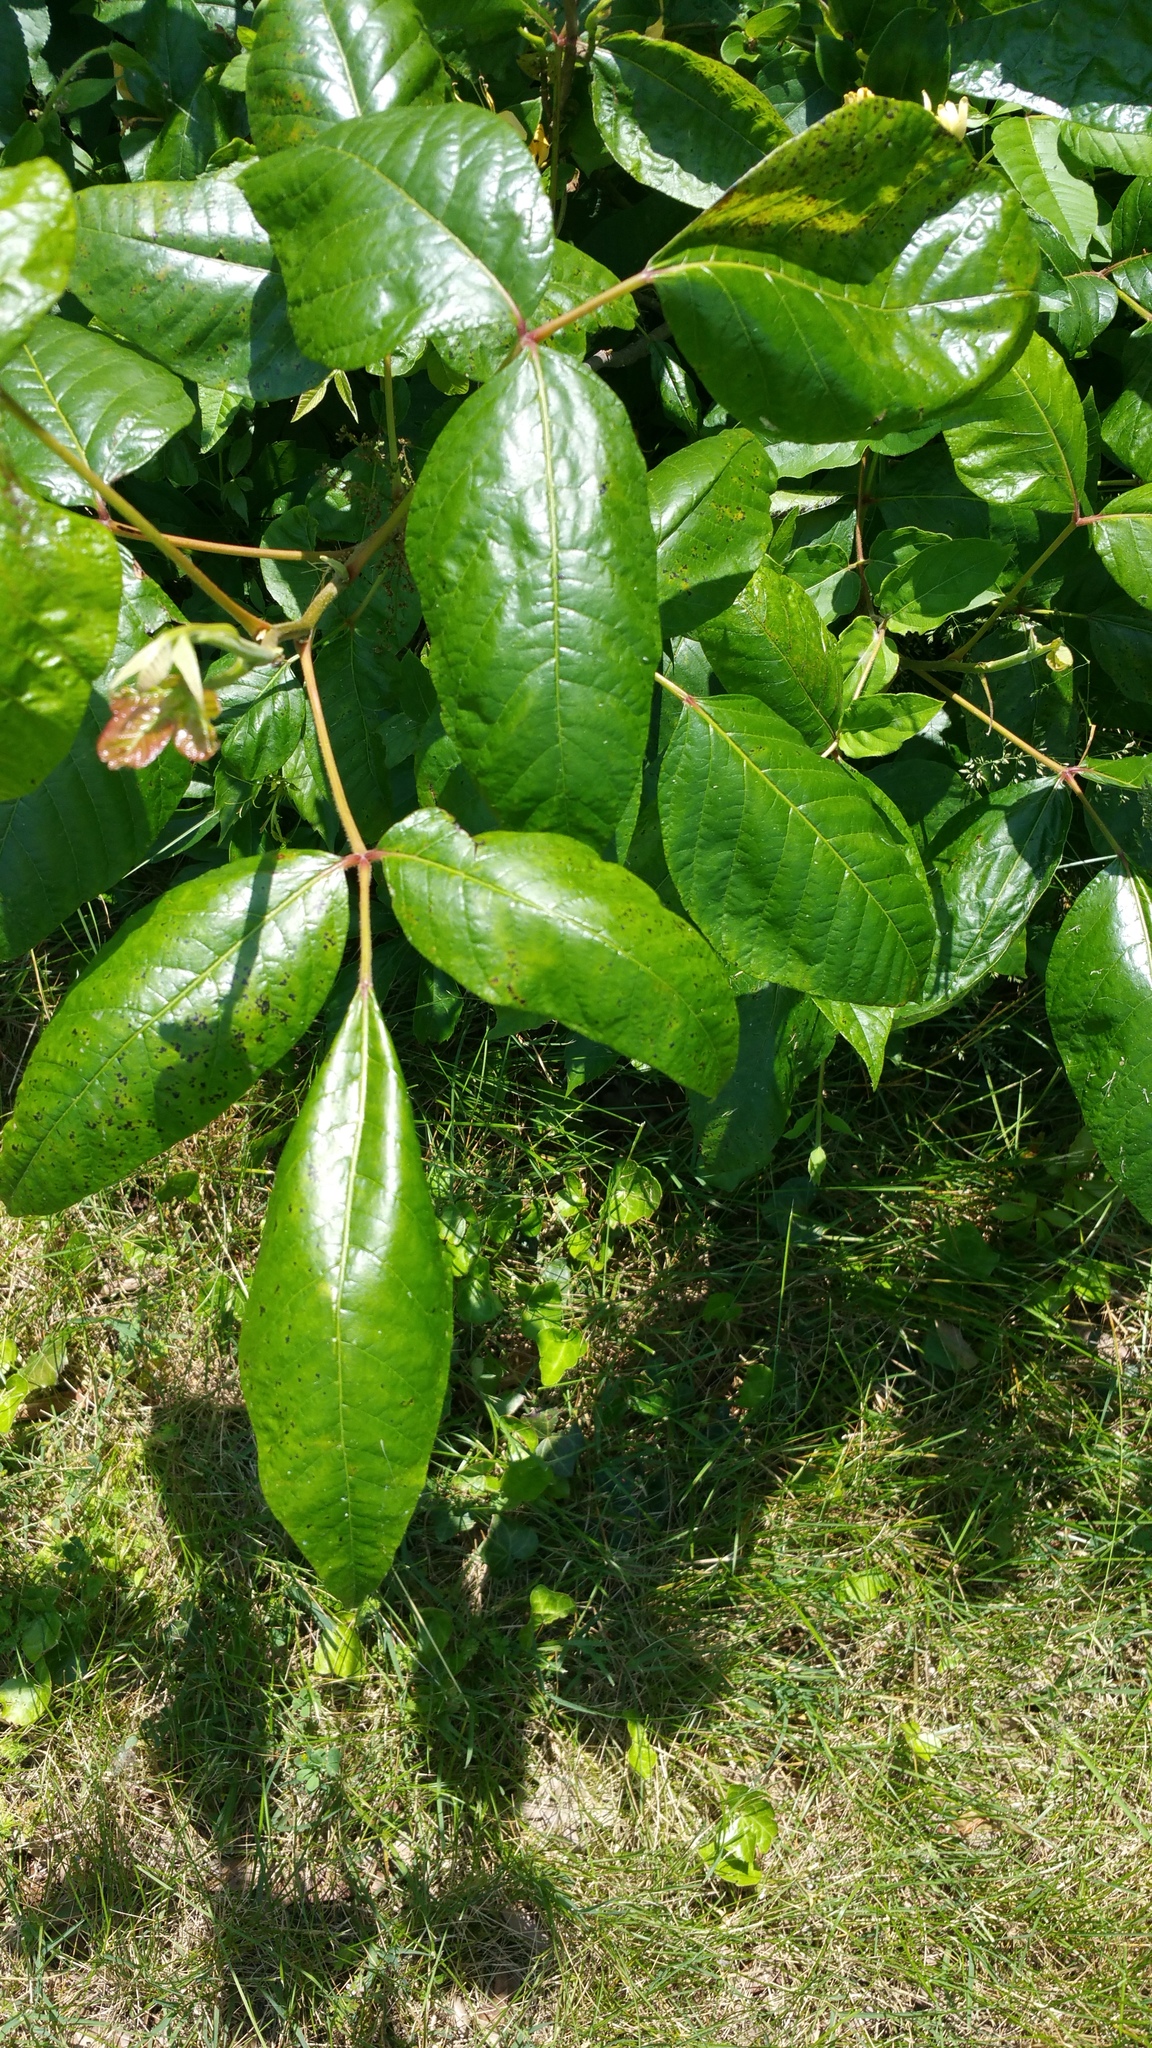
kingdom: Plantae
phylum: Tracheophyta
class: Magnoliopsida
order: Sapindales
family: Anacardiaceae
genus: Toxicodendron
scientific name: Toxicodendron radicans
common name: Poison ivy
